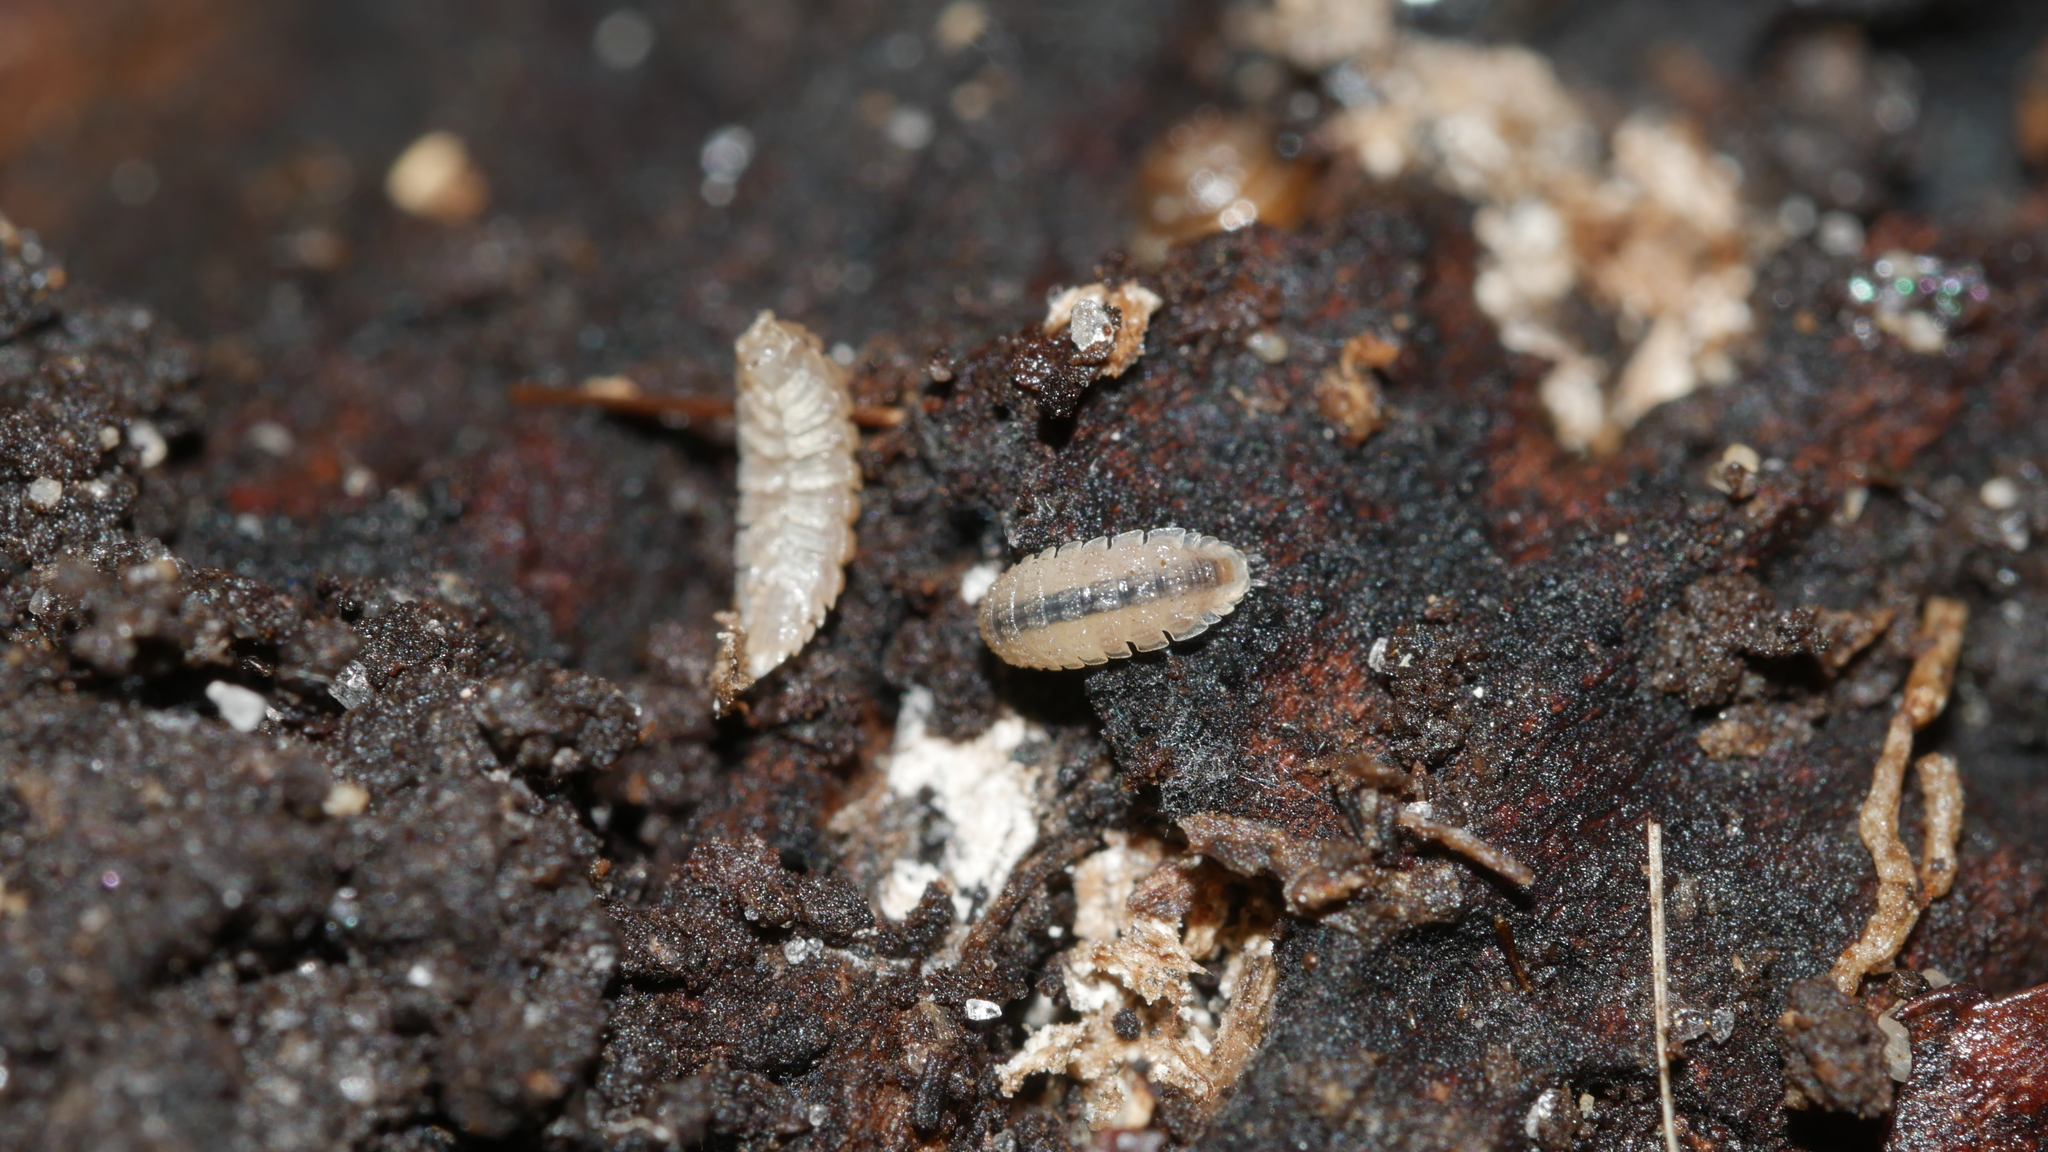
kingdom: Animalia
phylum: Arthropoda
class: Malacostraca
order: Isopoda
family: Trichoniscidae
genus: Haplophthalmus
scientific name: Haplophthalmus danicus
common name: Pillbug
